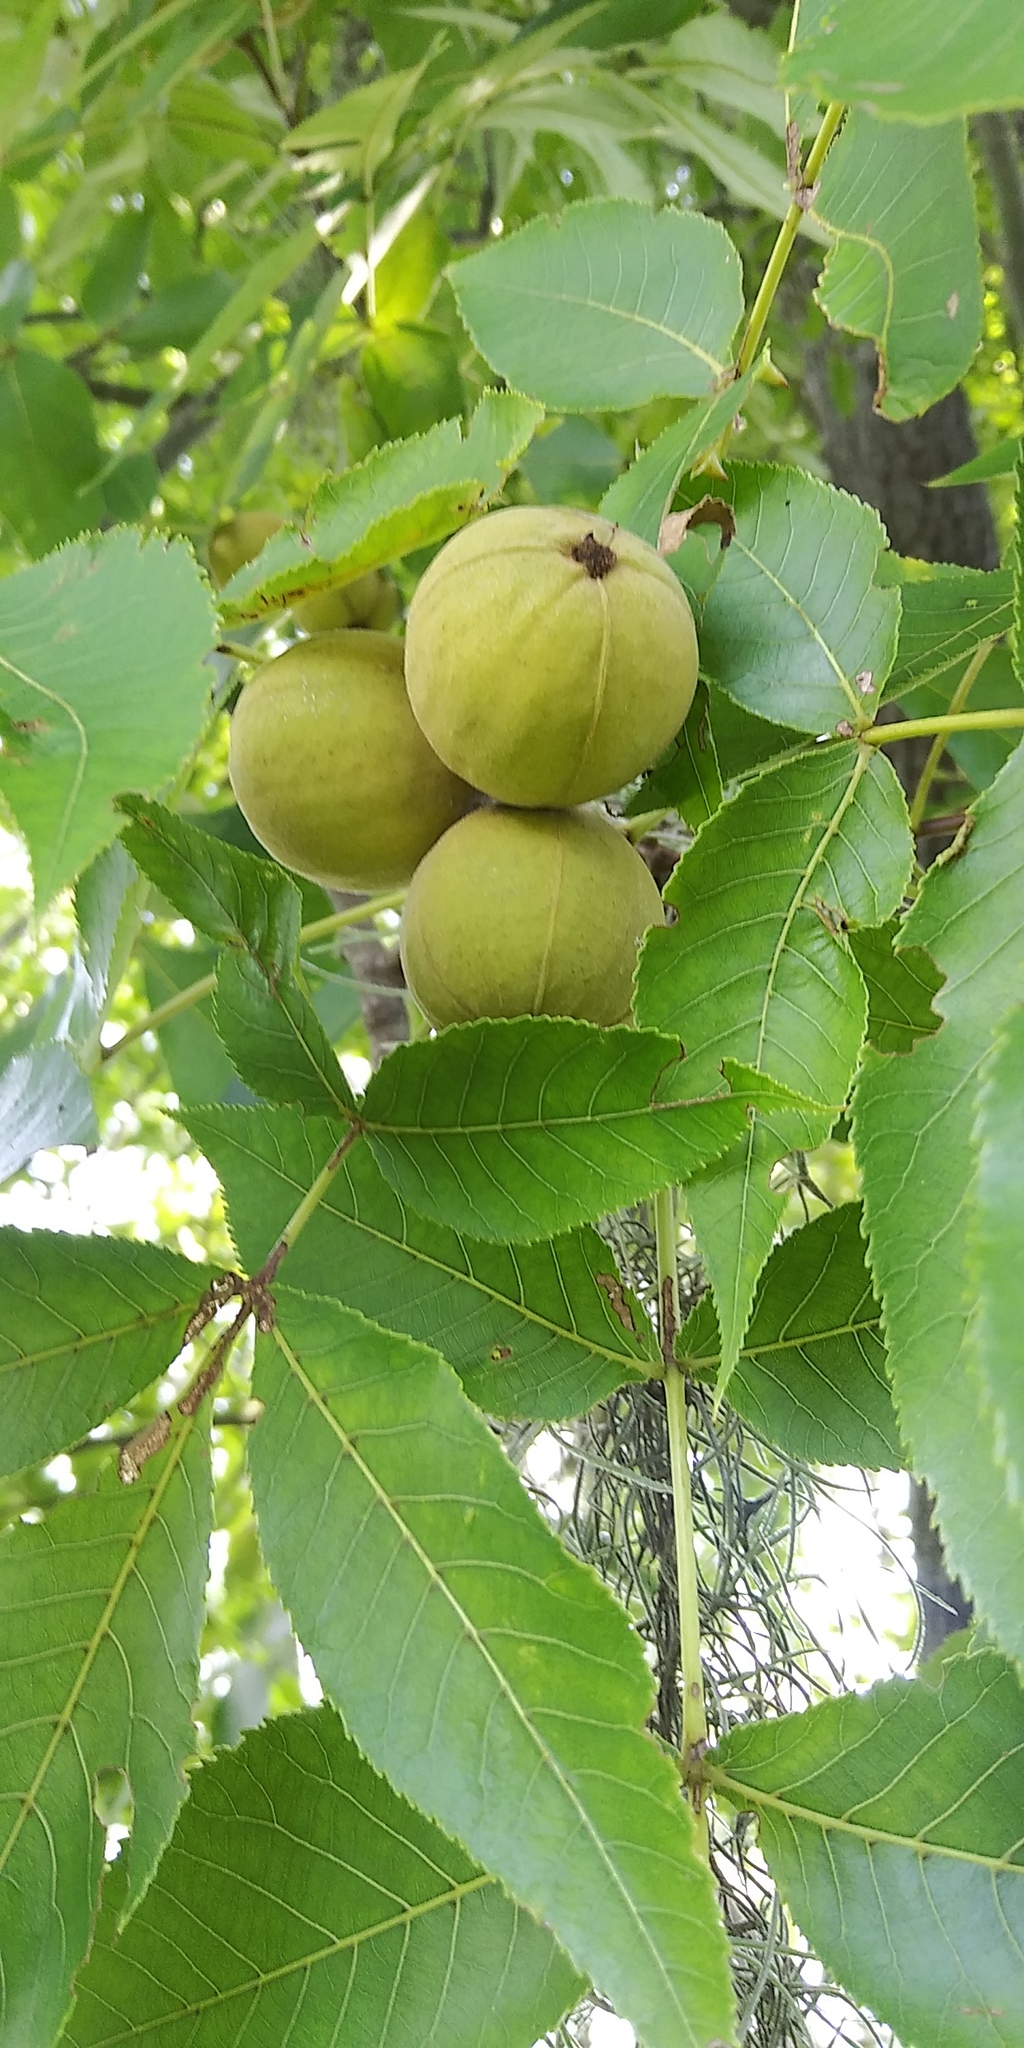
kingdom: Plantae
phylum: Tracheophyta
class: Magnoliopsida
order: Fagales
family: Juglandaceae
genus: Carya
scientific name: Carya glabra
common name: Pignut hickory
